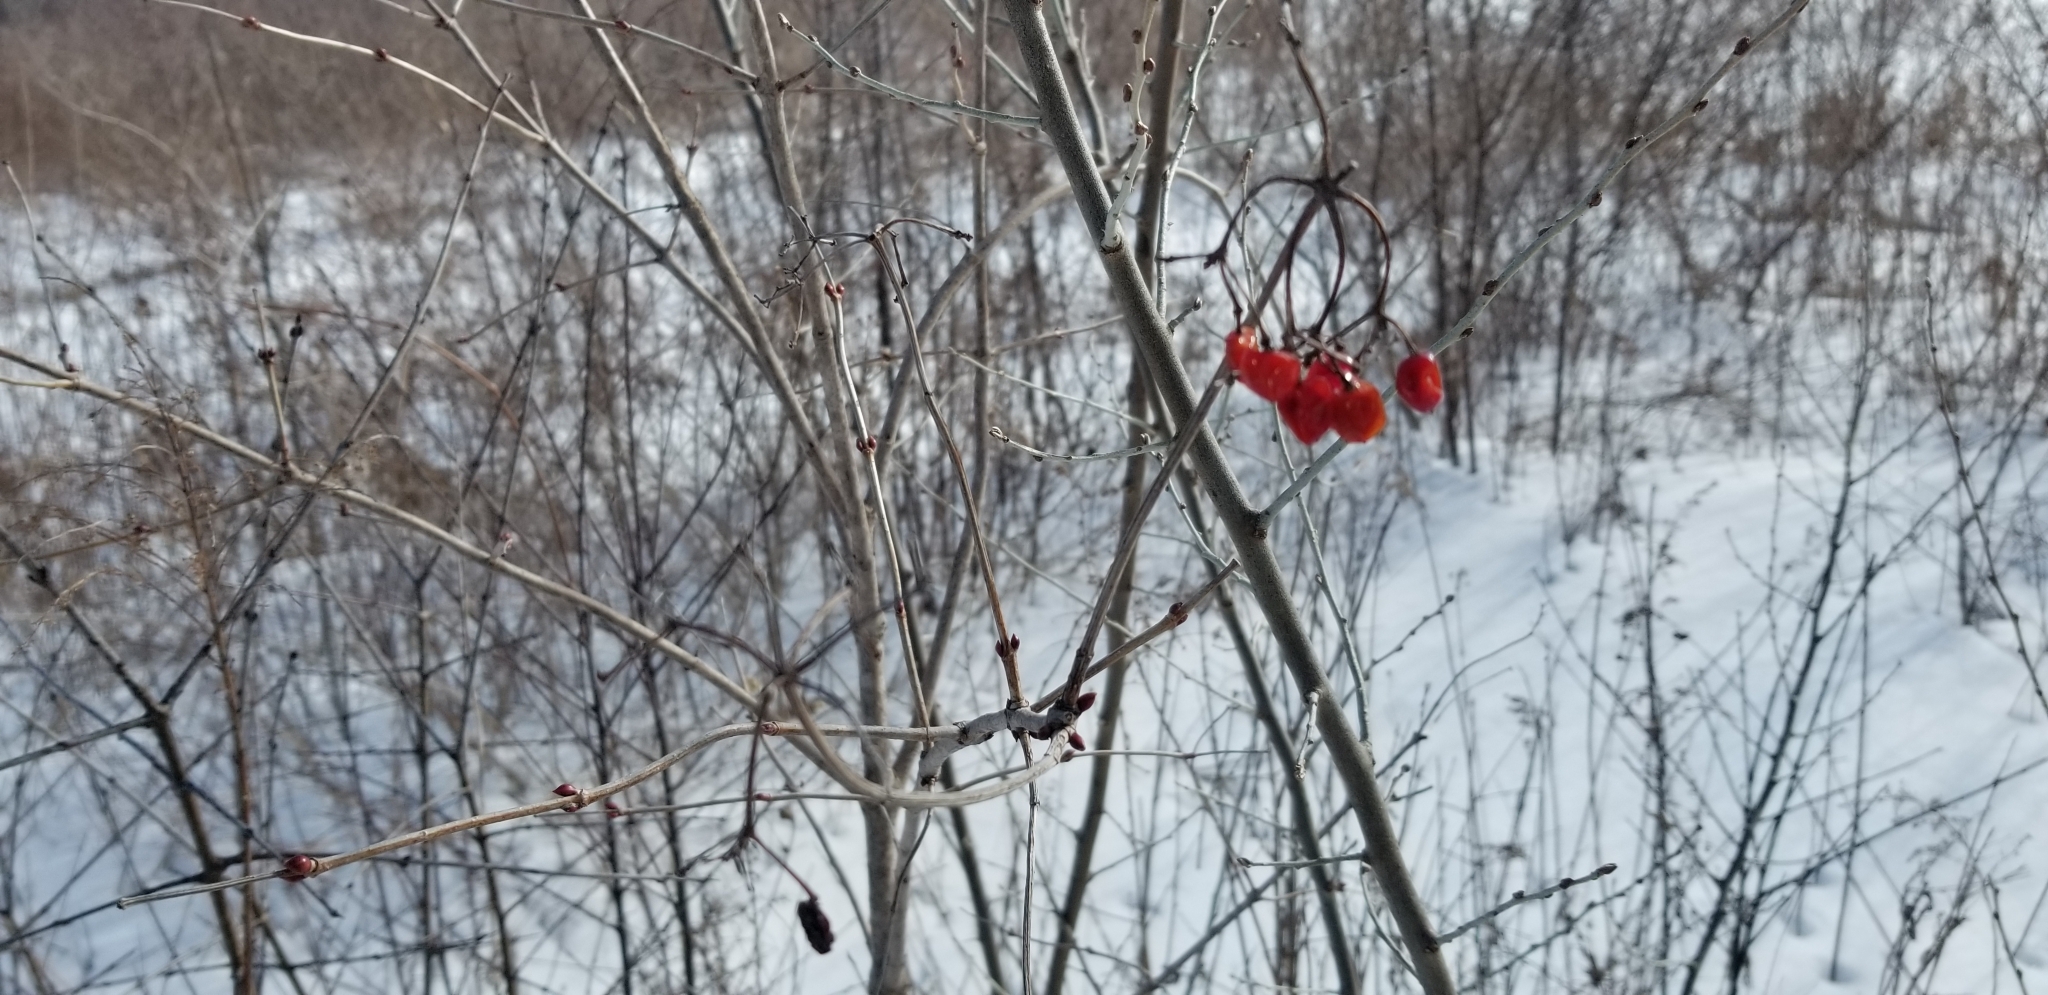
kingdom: Plantae
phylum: Tracheophyta
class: Magnoliopsida
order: Dipsacales
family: Viburnaceae
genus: Viburnum
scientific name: Viburnum opulus
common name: Guelder-rose
